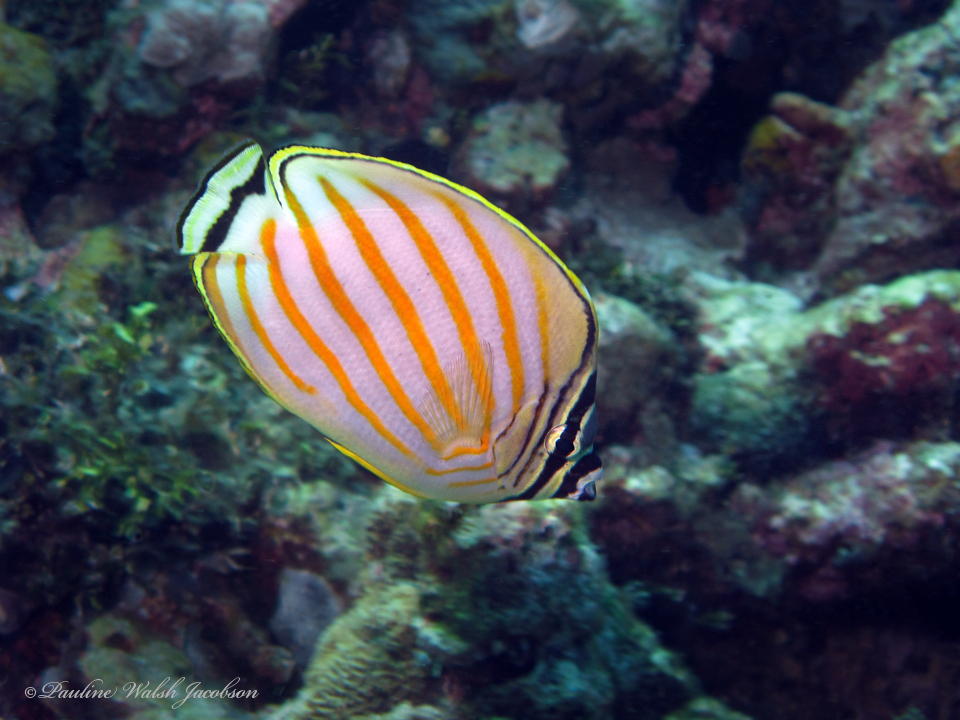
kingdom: Animalia
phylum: Chordata
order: Perciformes
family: Chaetodontidae
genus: Chaetodon
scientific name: Chaetodon ornatissimus
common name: Ornate butterflyfish
